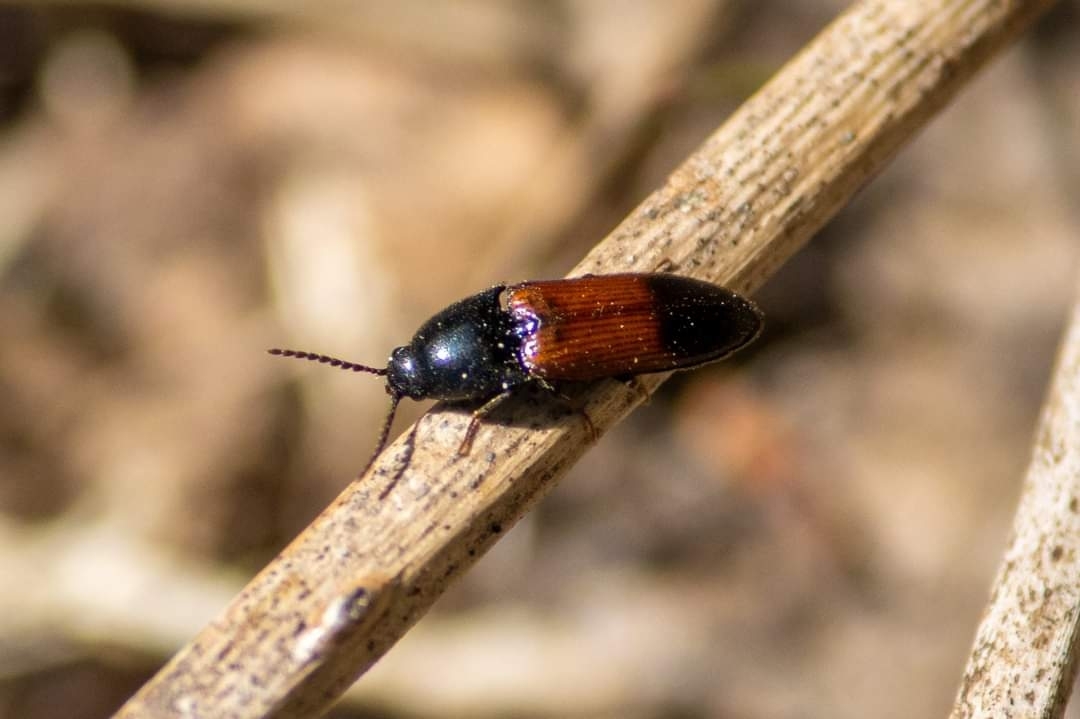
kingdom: Animalia
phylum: Arthropoda
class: Insecta
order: Coleoptera
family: Elateridae
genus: Ampedus
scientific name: Ampedus balteatus
